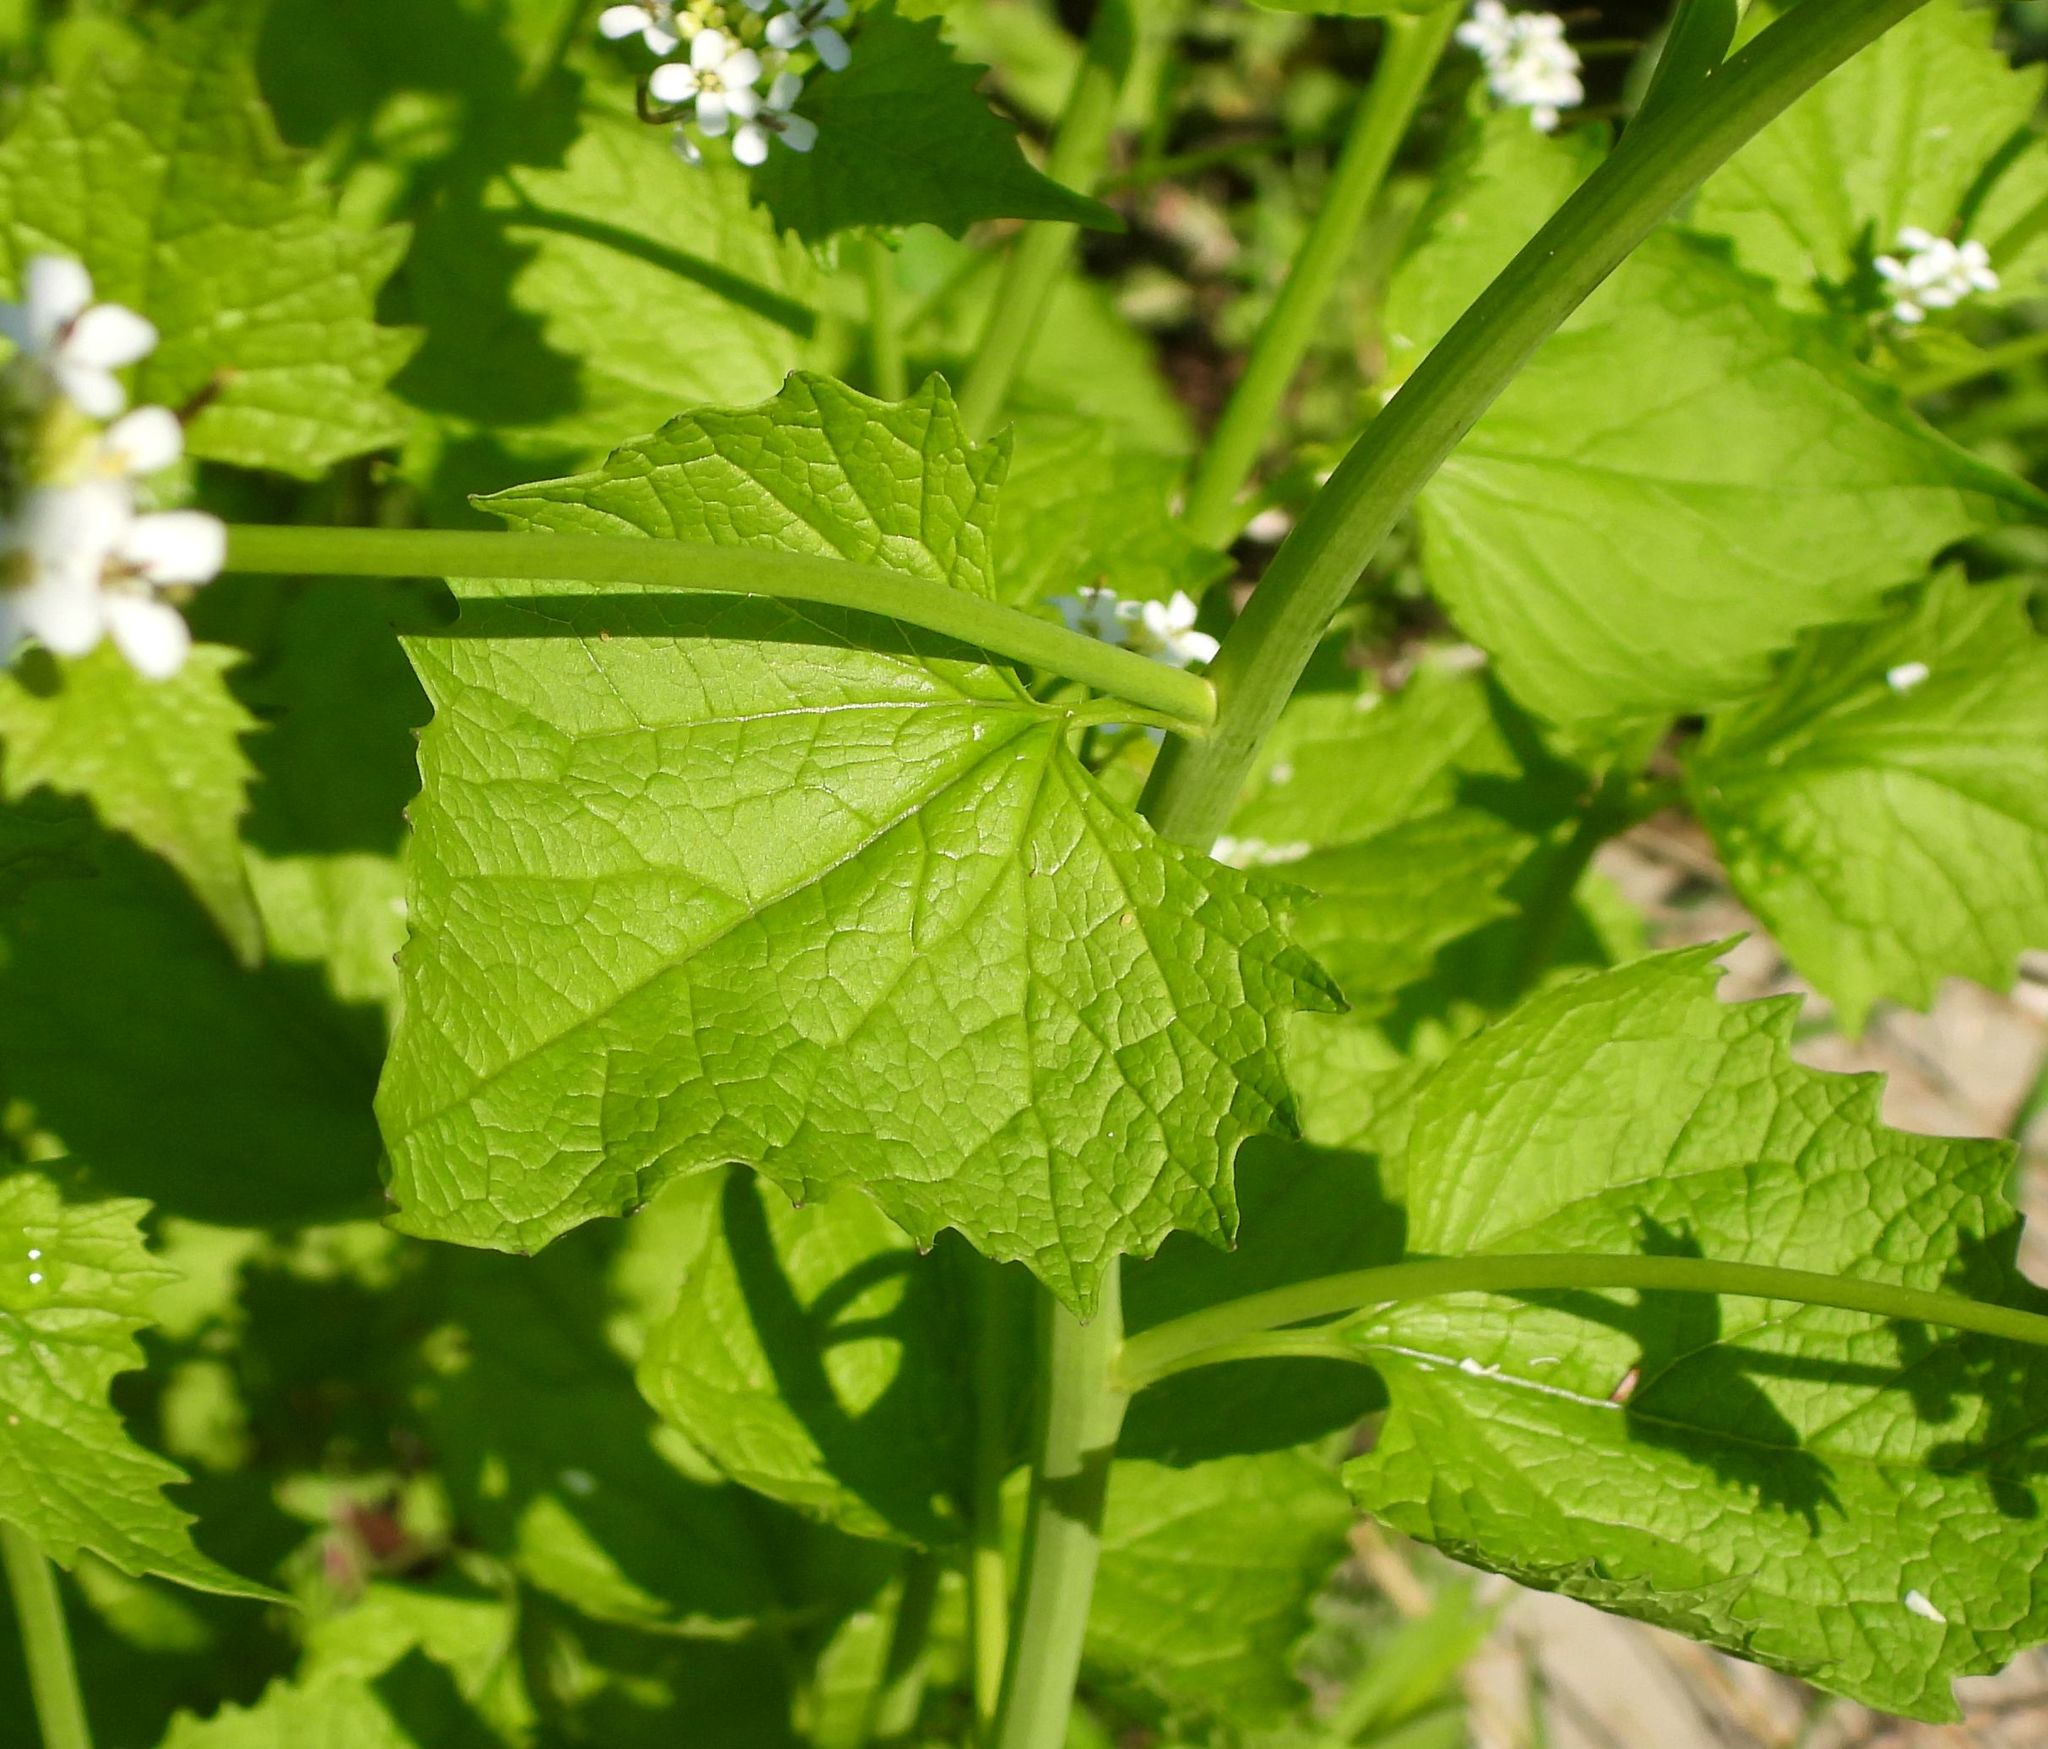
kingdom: Plantae
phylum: Tracheophyta
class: Magnoliopsida
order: Brassicales
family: Brassicaceae
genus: Alliaria
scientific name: Alliaria petiolata
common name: Garlic mustard
